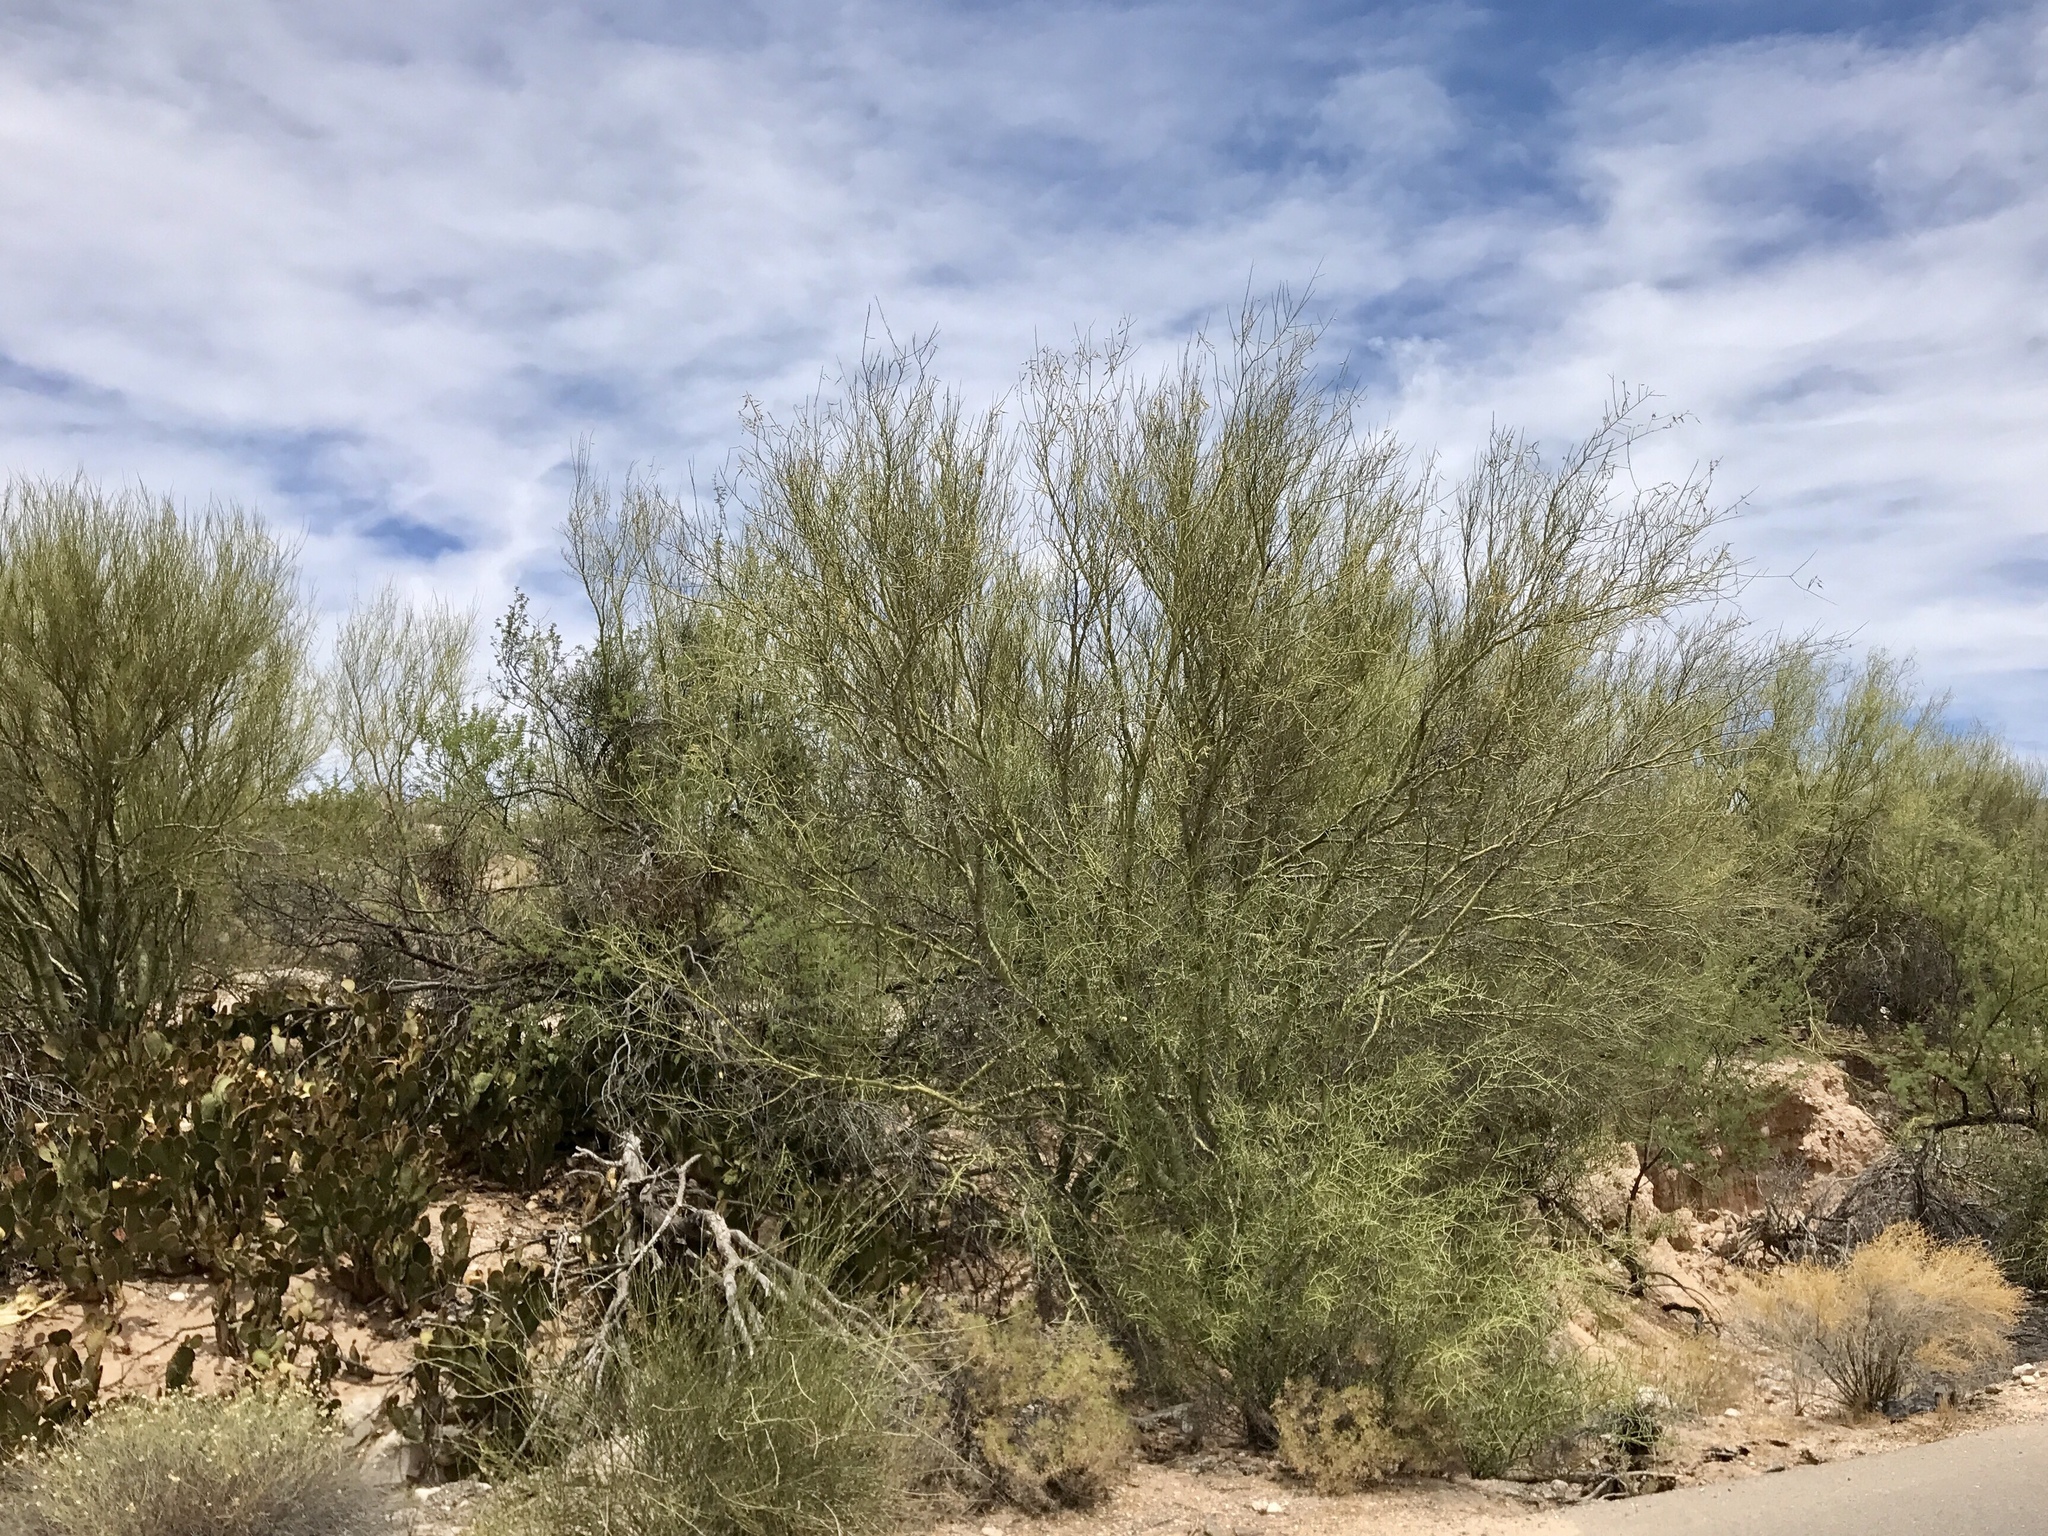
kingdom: Plantae
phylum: Tracheophyta
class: Magnoliopsida
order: Fabales
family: Fabaceae
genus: Parkinsonia
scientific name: Parkinsonia microphylla
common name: Yellow paloverde
